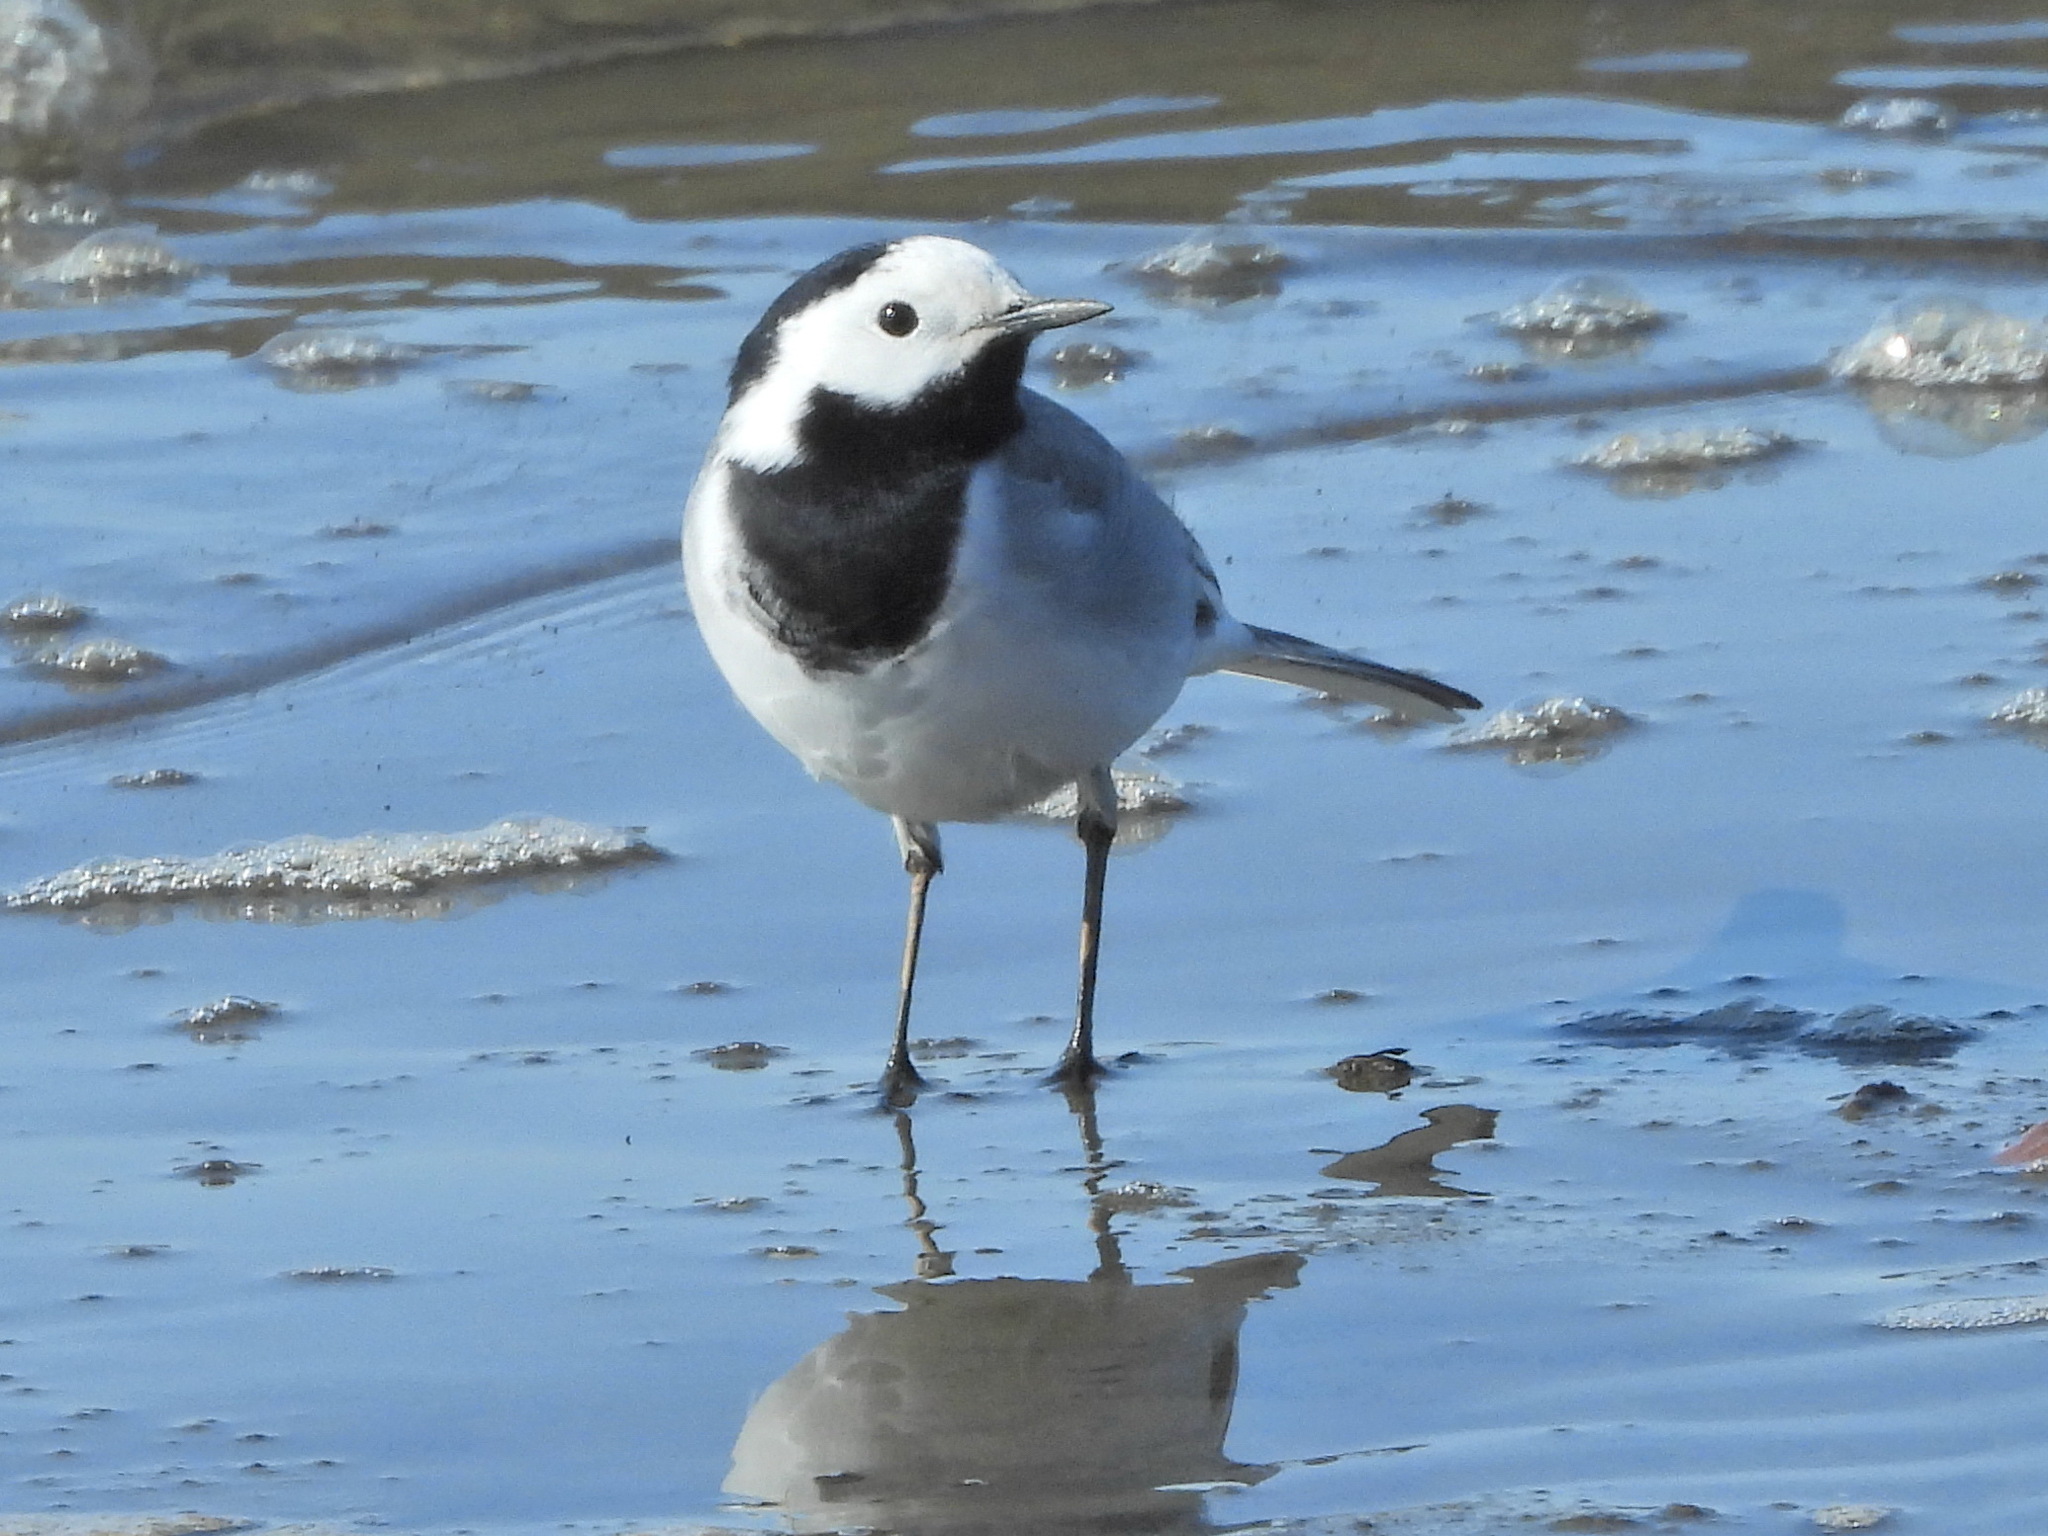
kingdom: Animalia
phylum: Chordata
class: Aves
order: Passeriformes
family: Motacillidae
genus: Motacilla
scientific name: Motacilla alba
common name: White wagtail
